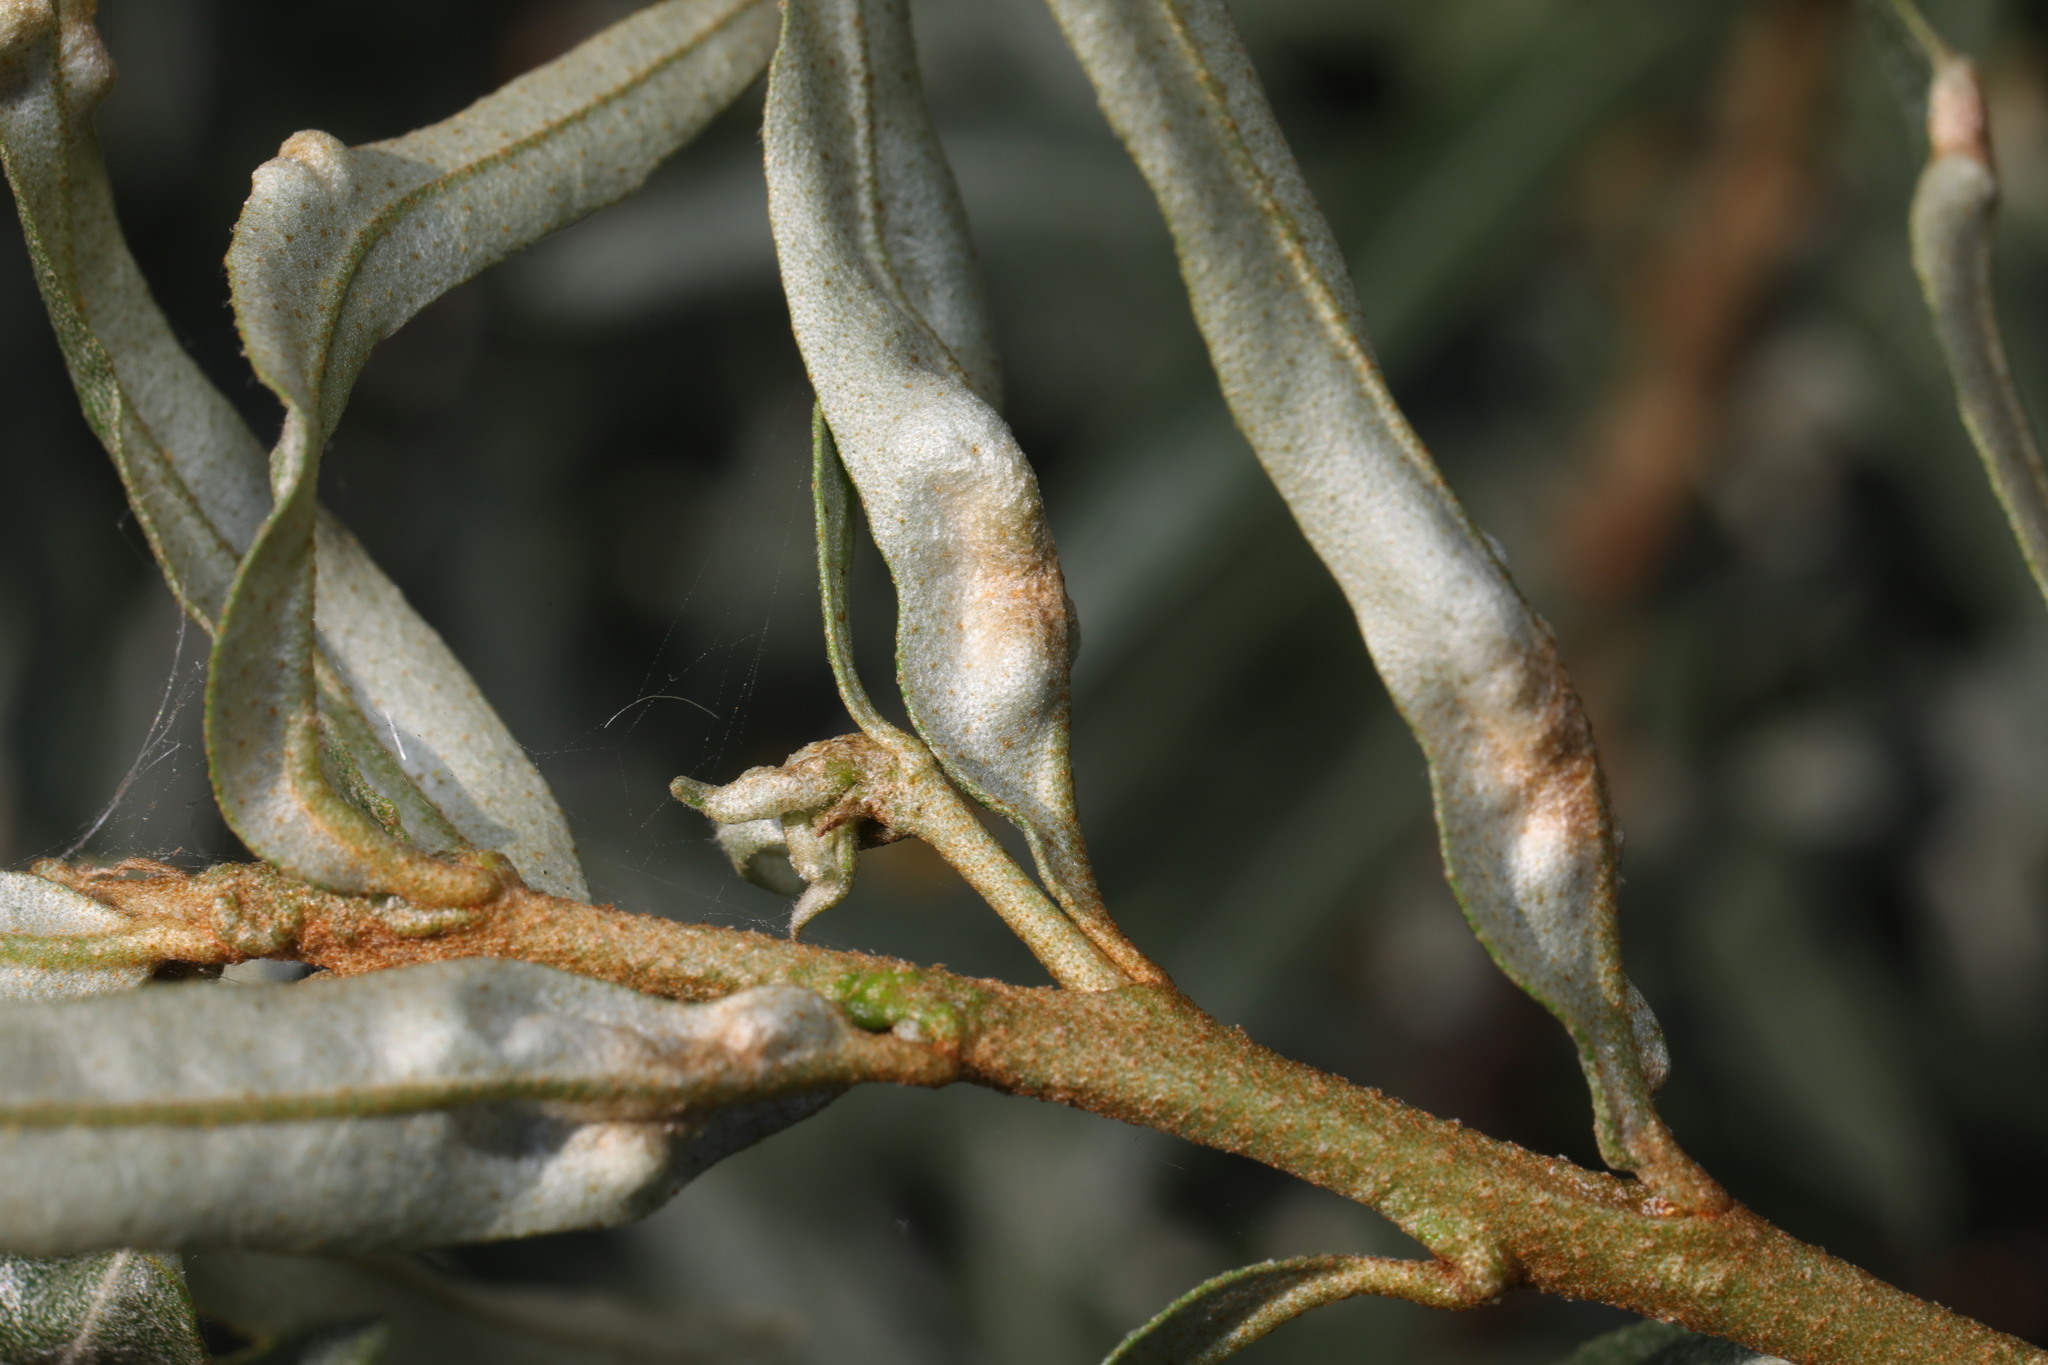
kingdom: Animalia
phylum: Arthropoda
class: Arachnida
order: Trombidiformes
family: Eriophyidae
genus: Aceria
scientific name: Aceria hippophaena
